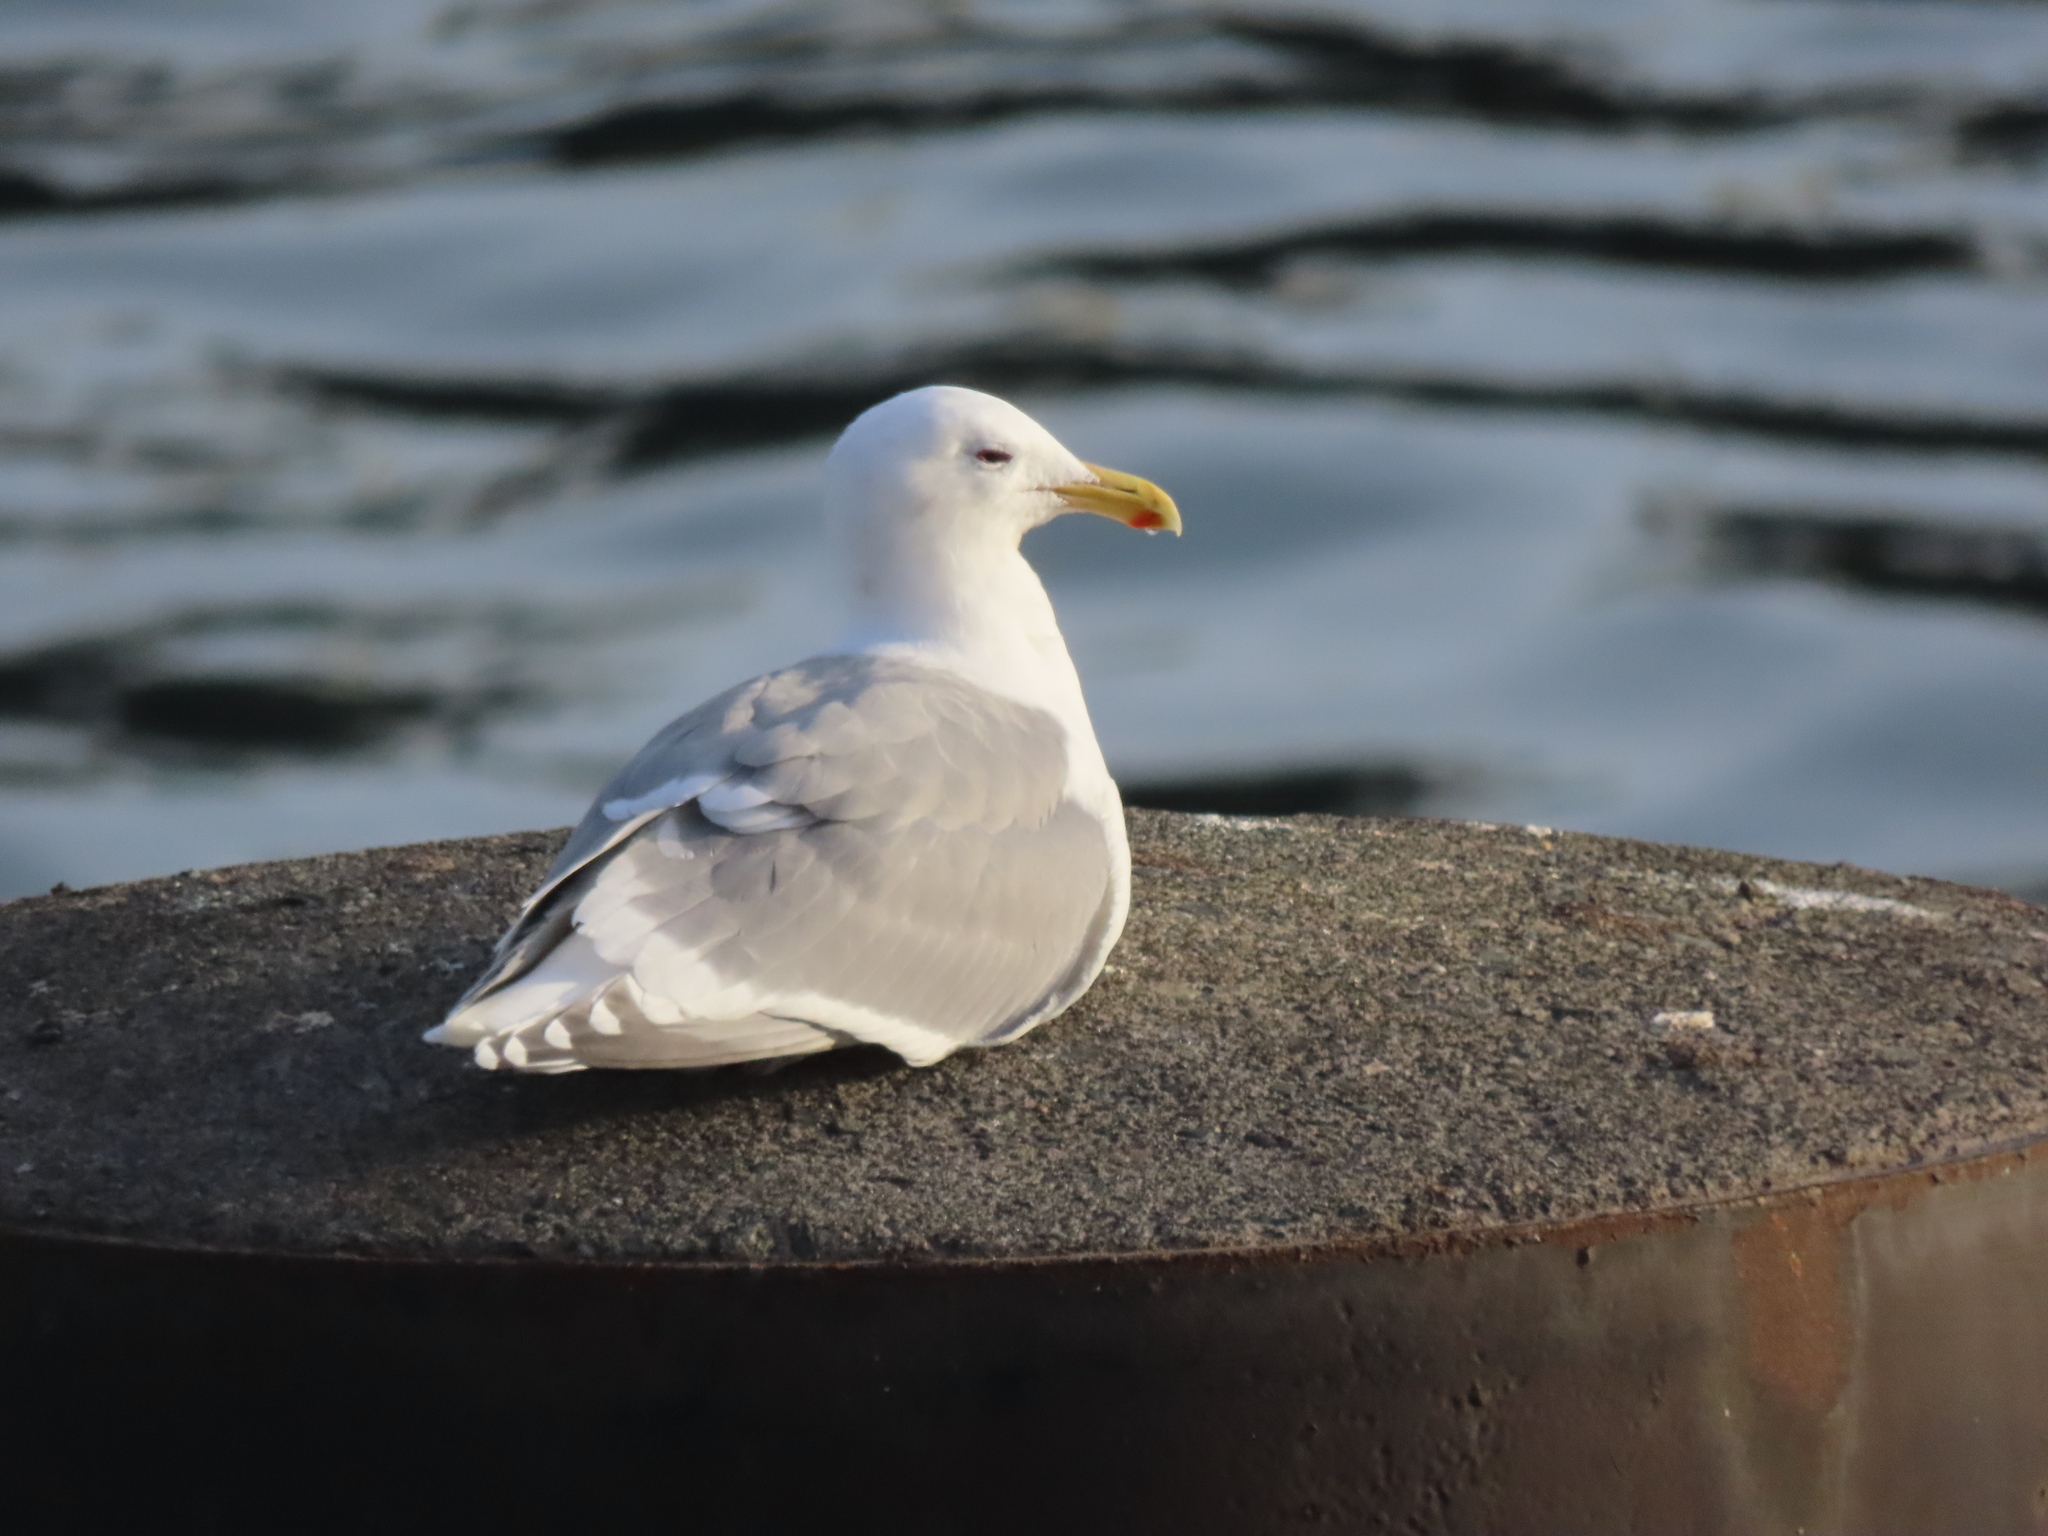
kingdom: Animalia
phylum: Chordata
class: Aves
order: Charadriiformes
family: Laridae
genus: Larus
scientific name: Larus
